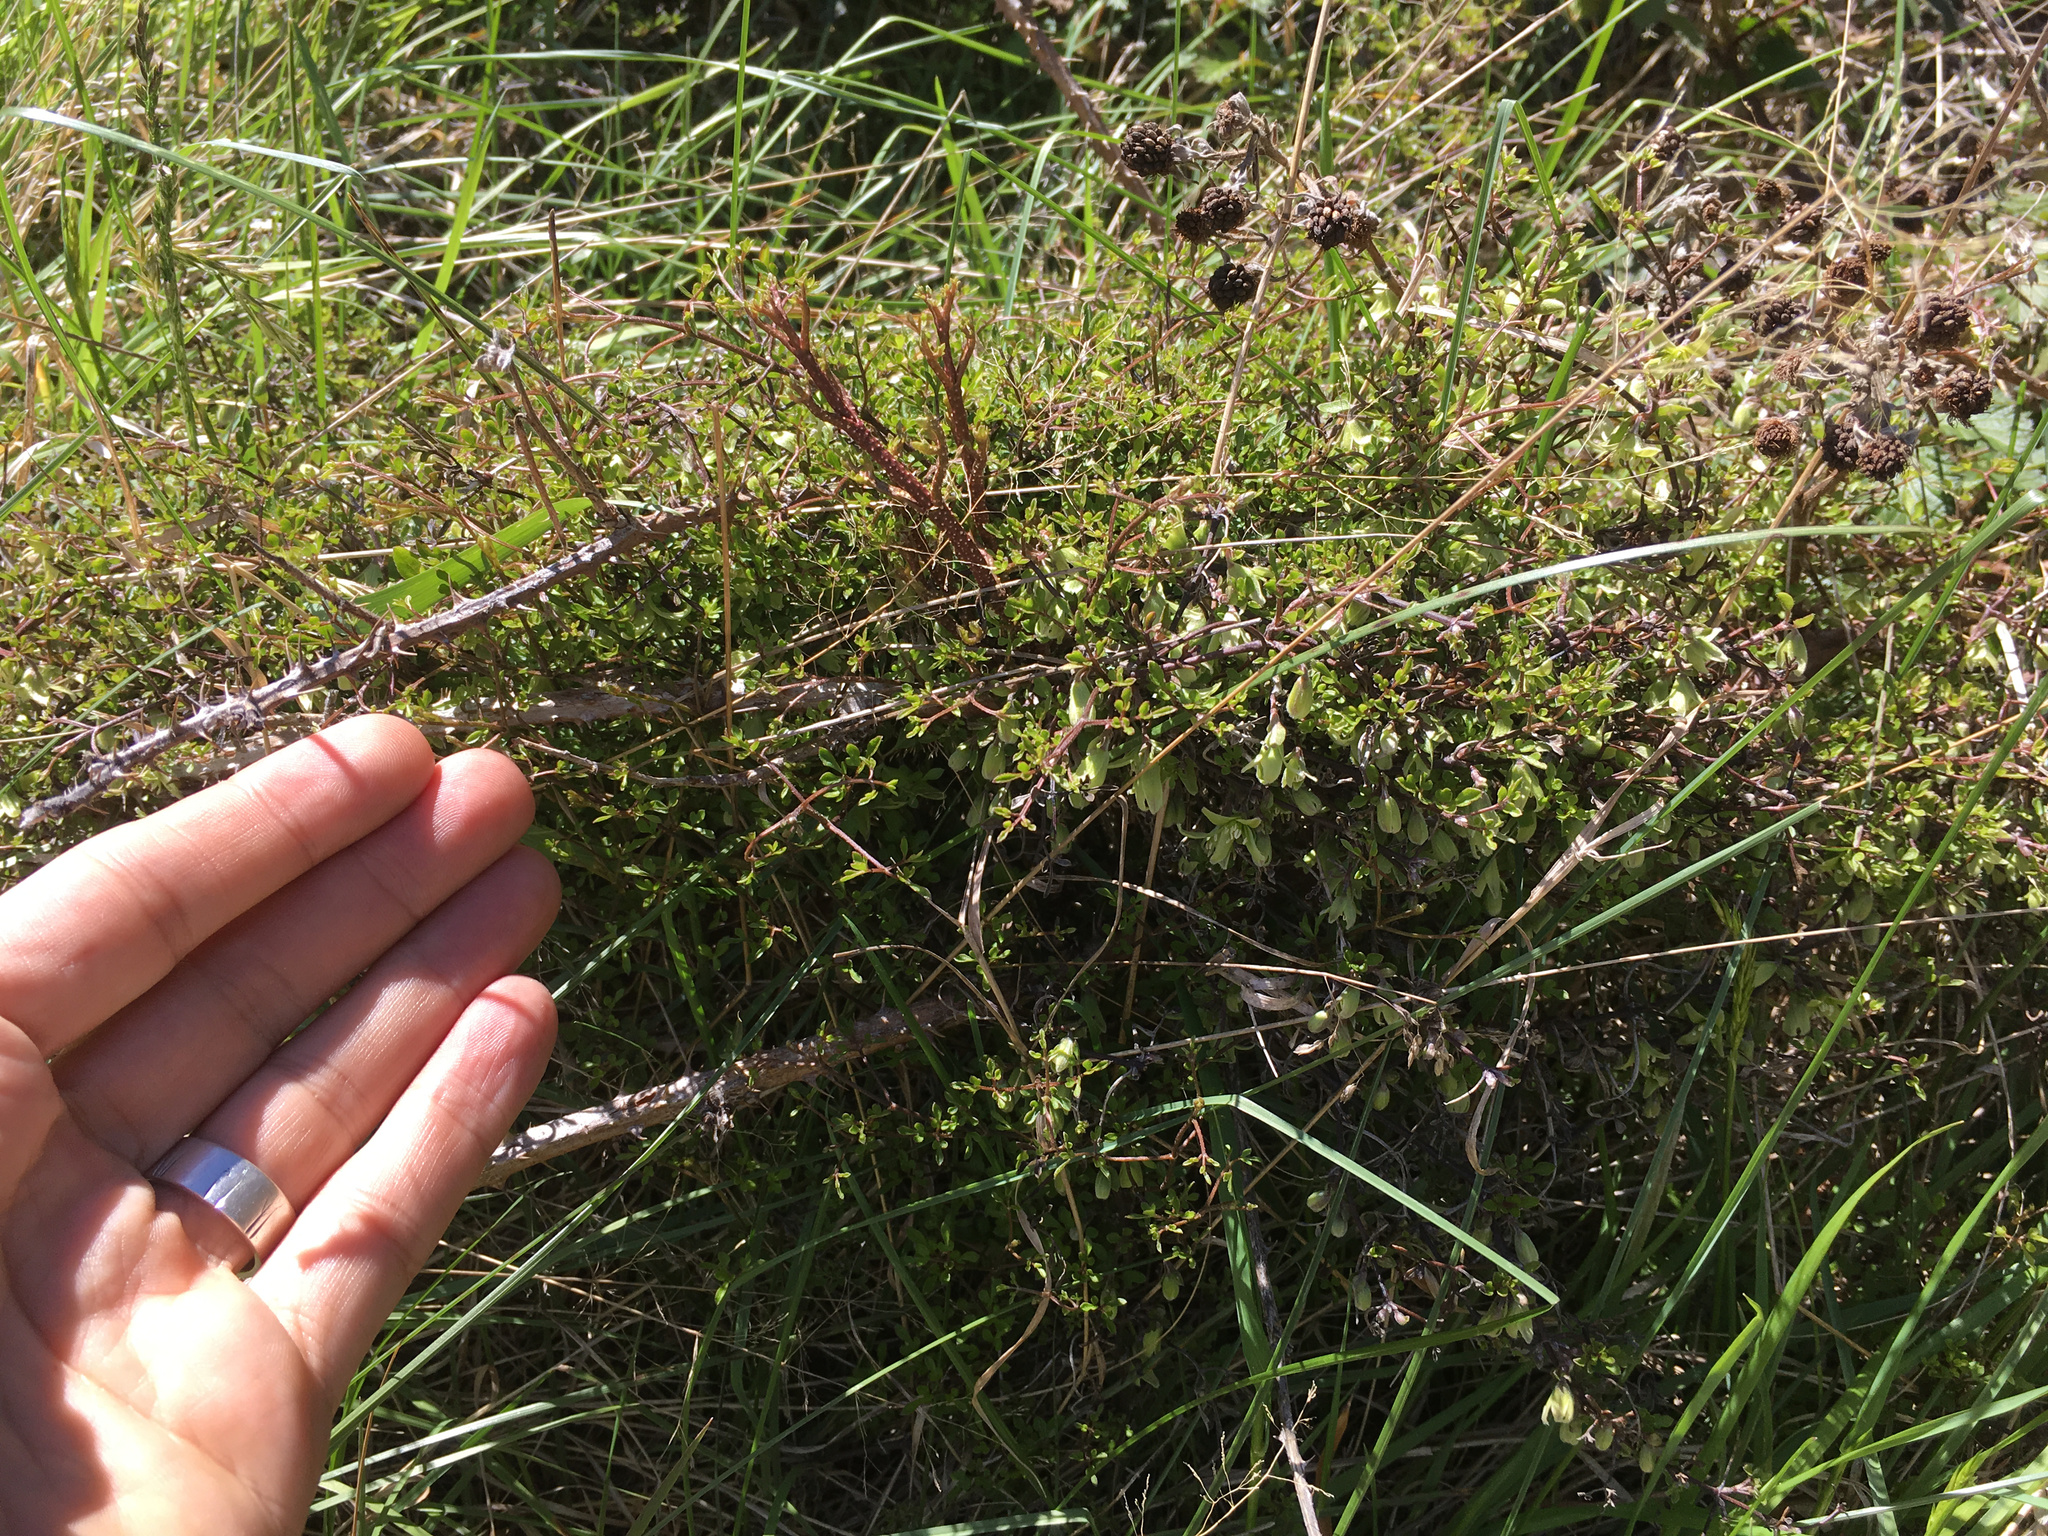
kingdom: Plantae
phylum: Tracheophyta
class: Magnoliopsida
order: Ranunculales
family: Ranunculaceae
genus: Clematis
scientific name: Clematis marata
